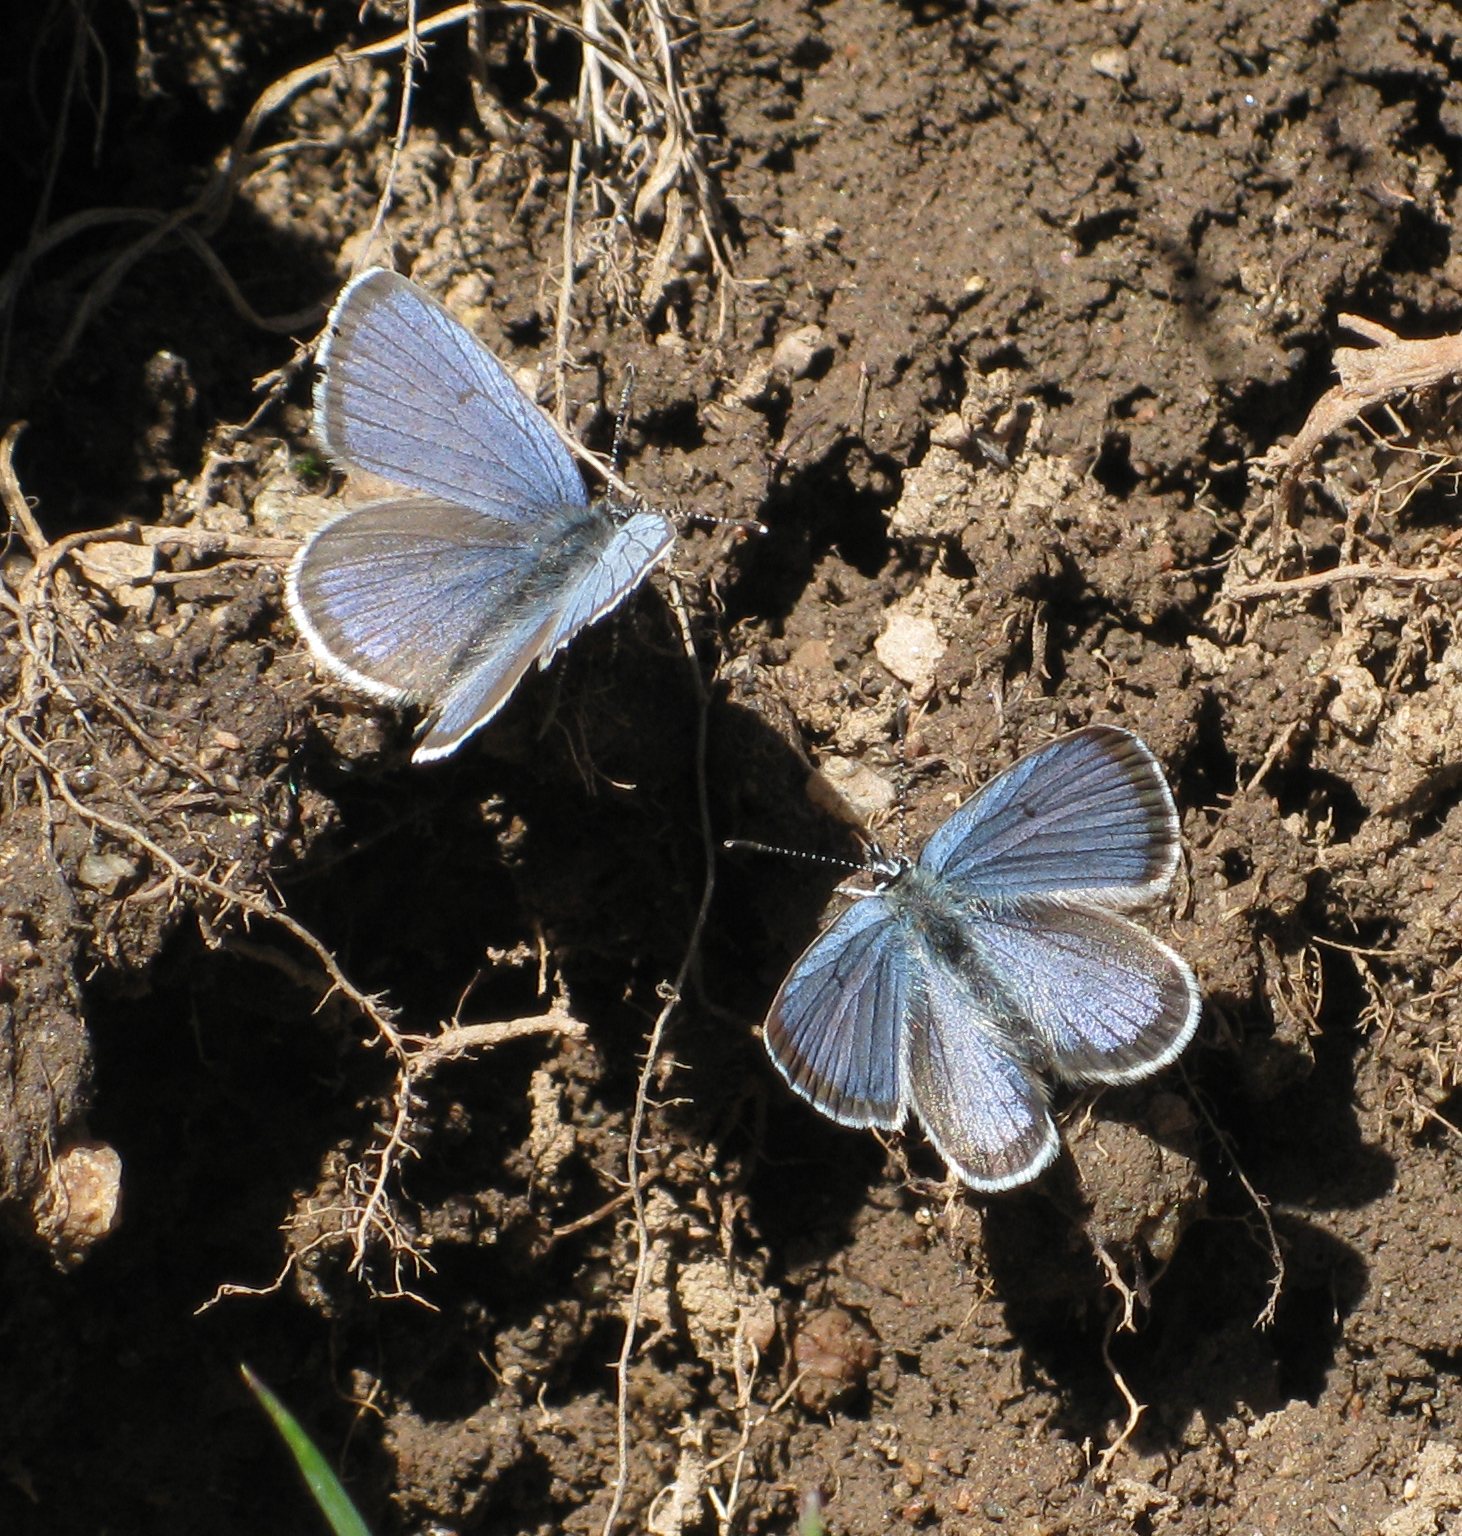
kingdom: Animalia
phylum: Arthropoda
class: Insecta
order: Lepidoptera
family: Lycaenidae
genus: Cupido
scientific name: Cupido buddhistus
